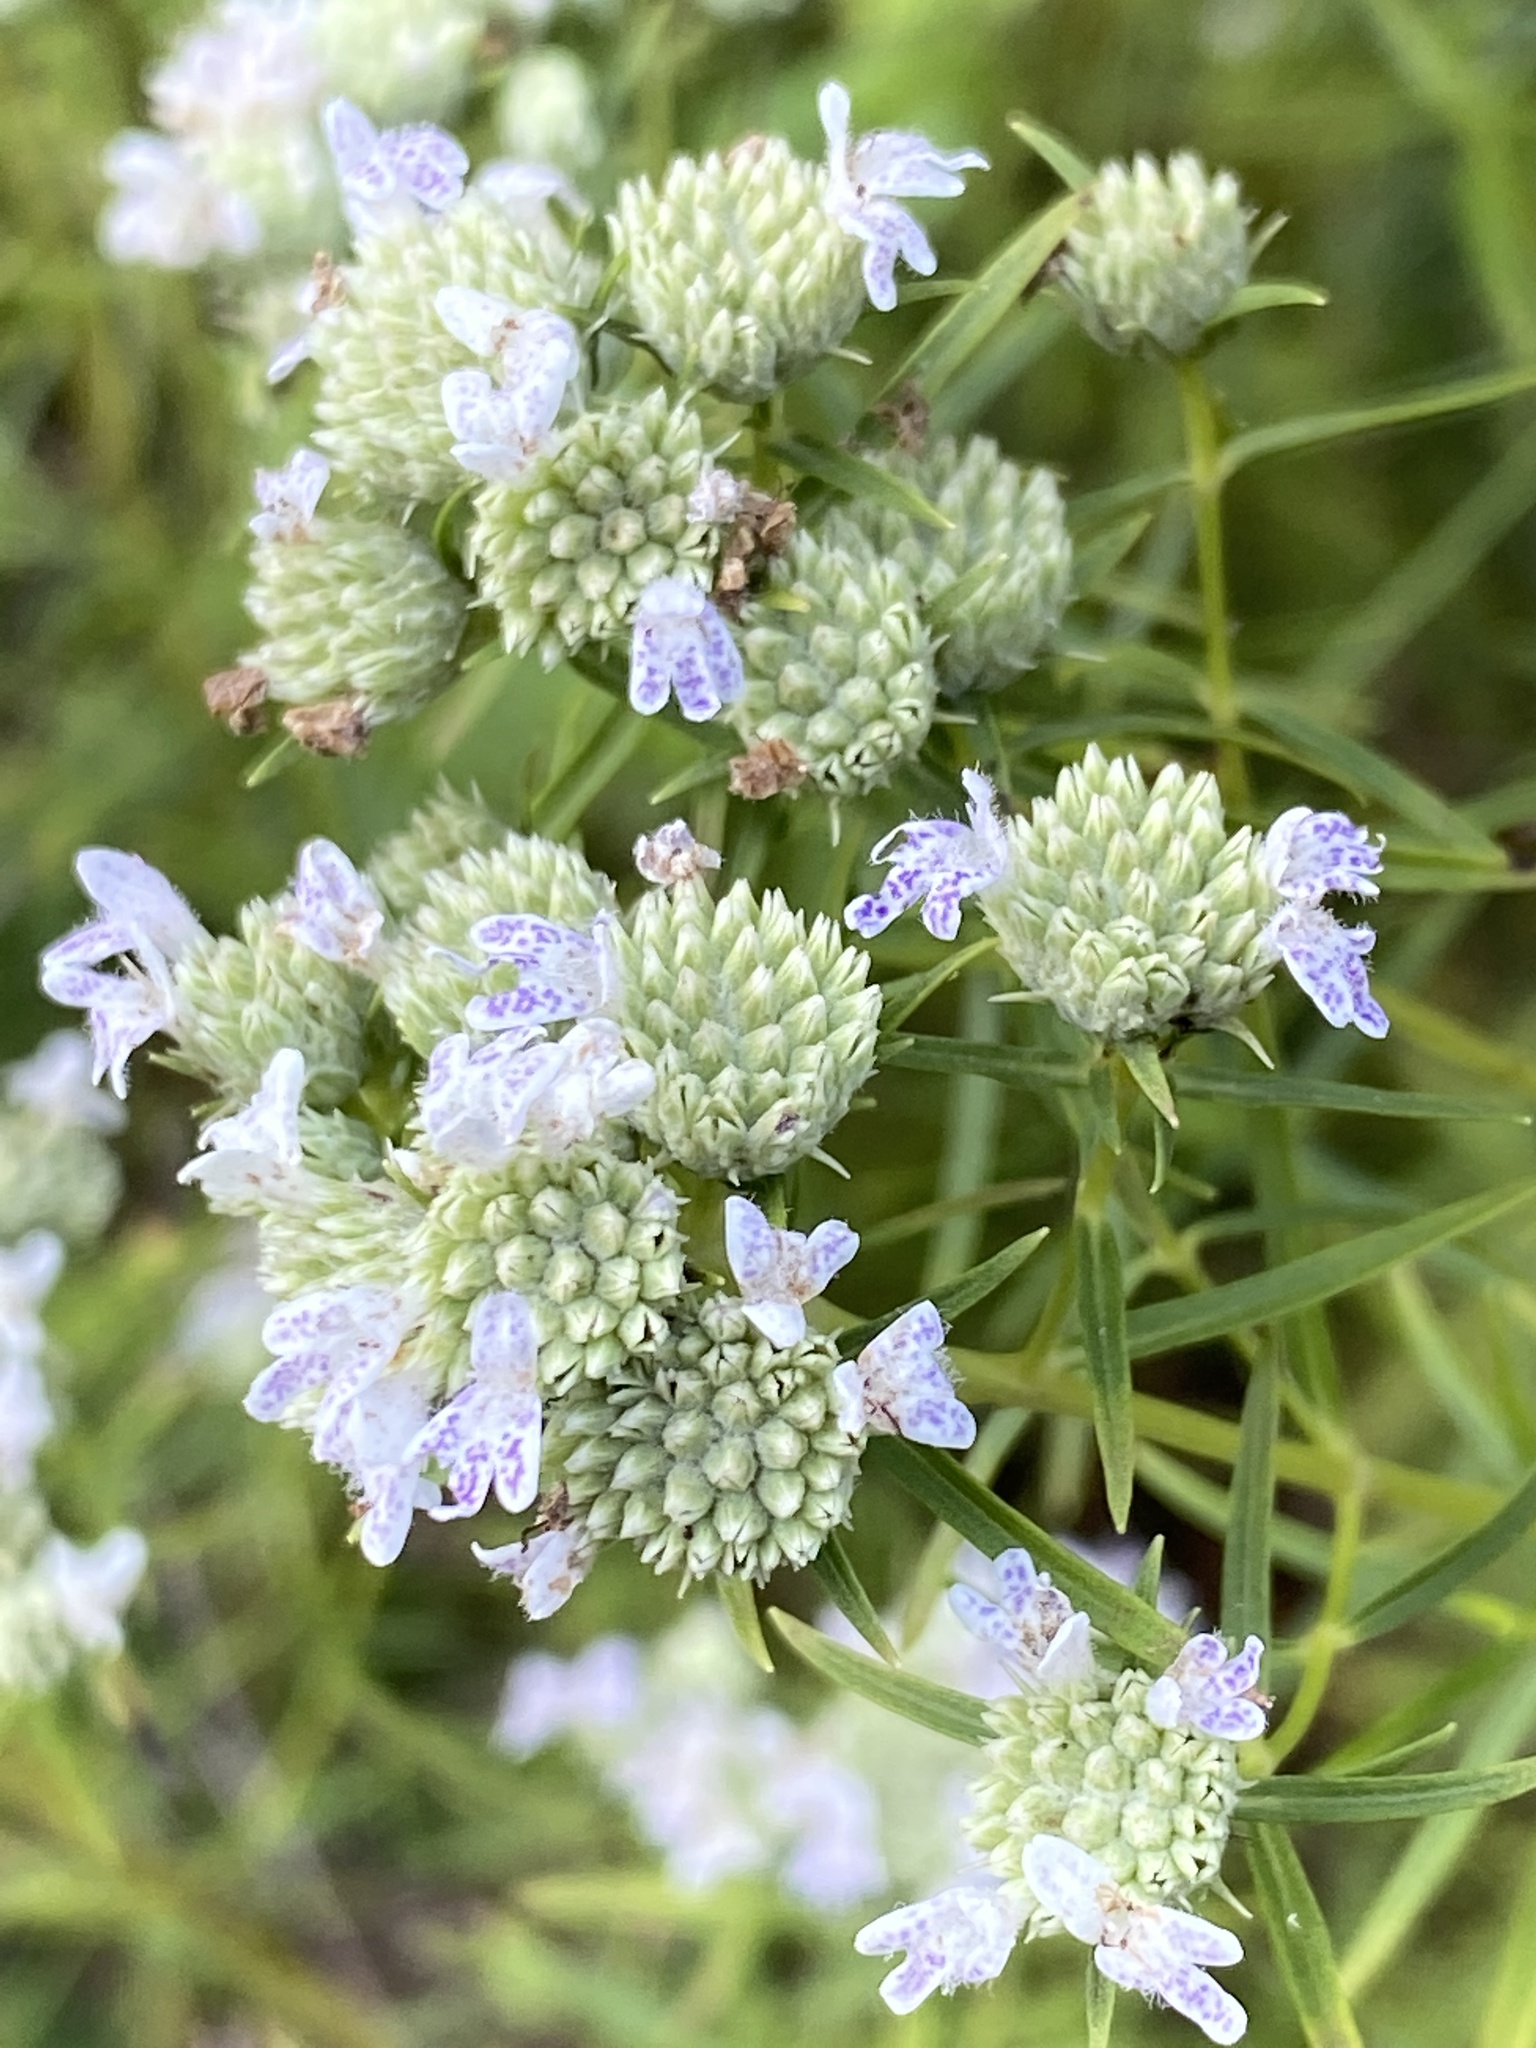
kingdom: Plantae
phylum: Tracheophyta
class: Magnoliopsida
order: Lamiales
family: Lamiaceae
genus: Pycnanthemum
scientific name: Pycnanthemum tenuifolium
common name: Narrow-leaf mountain-mint
